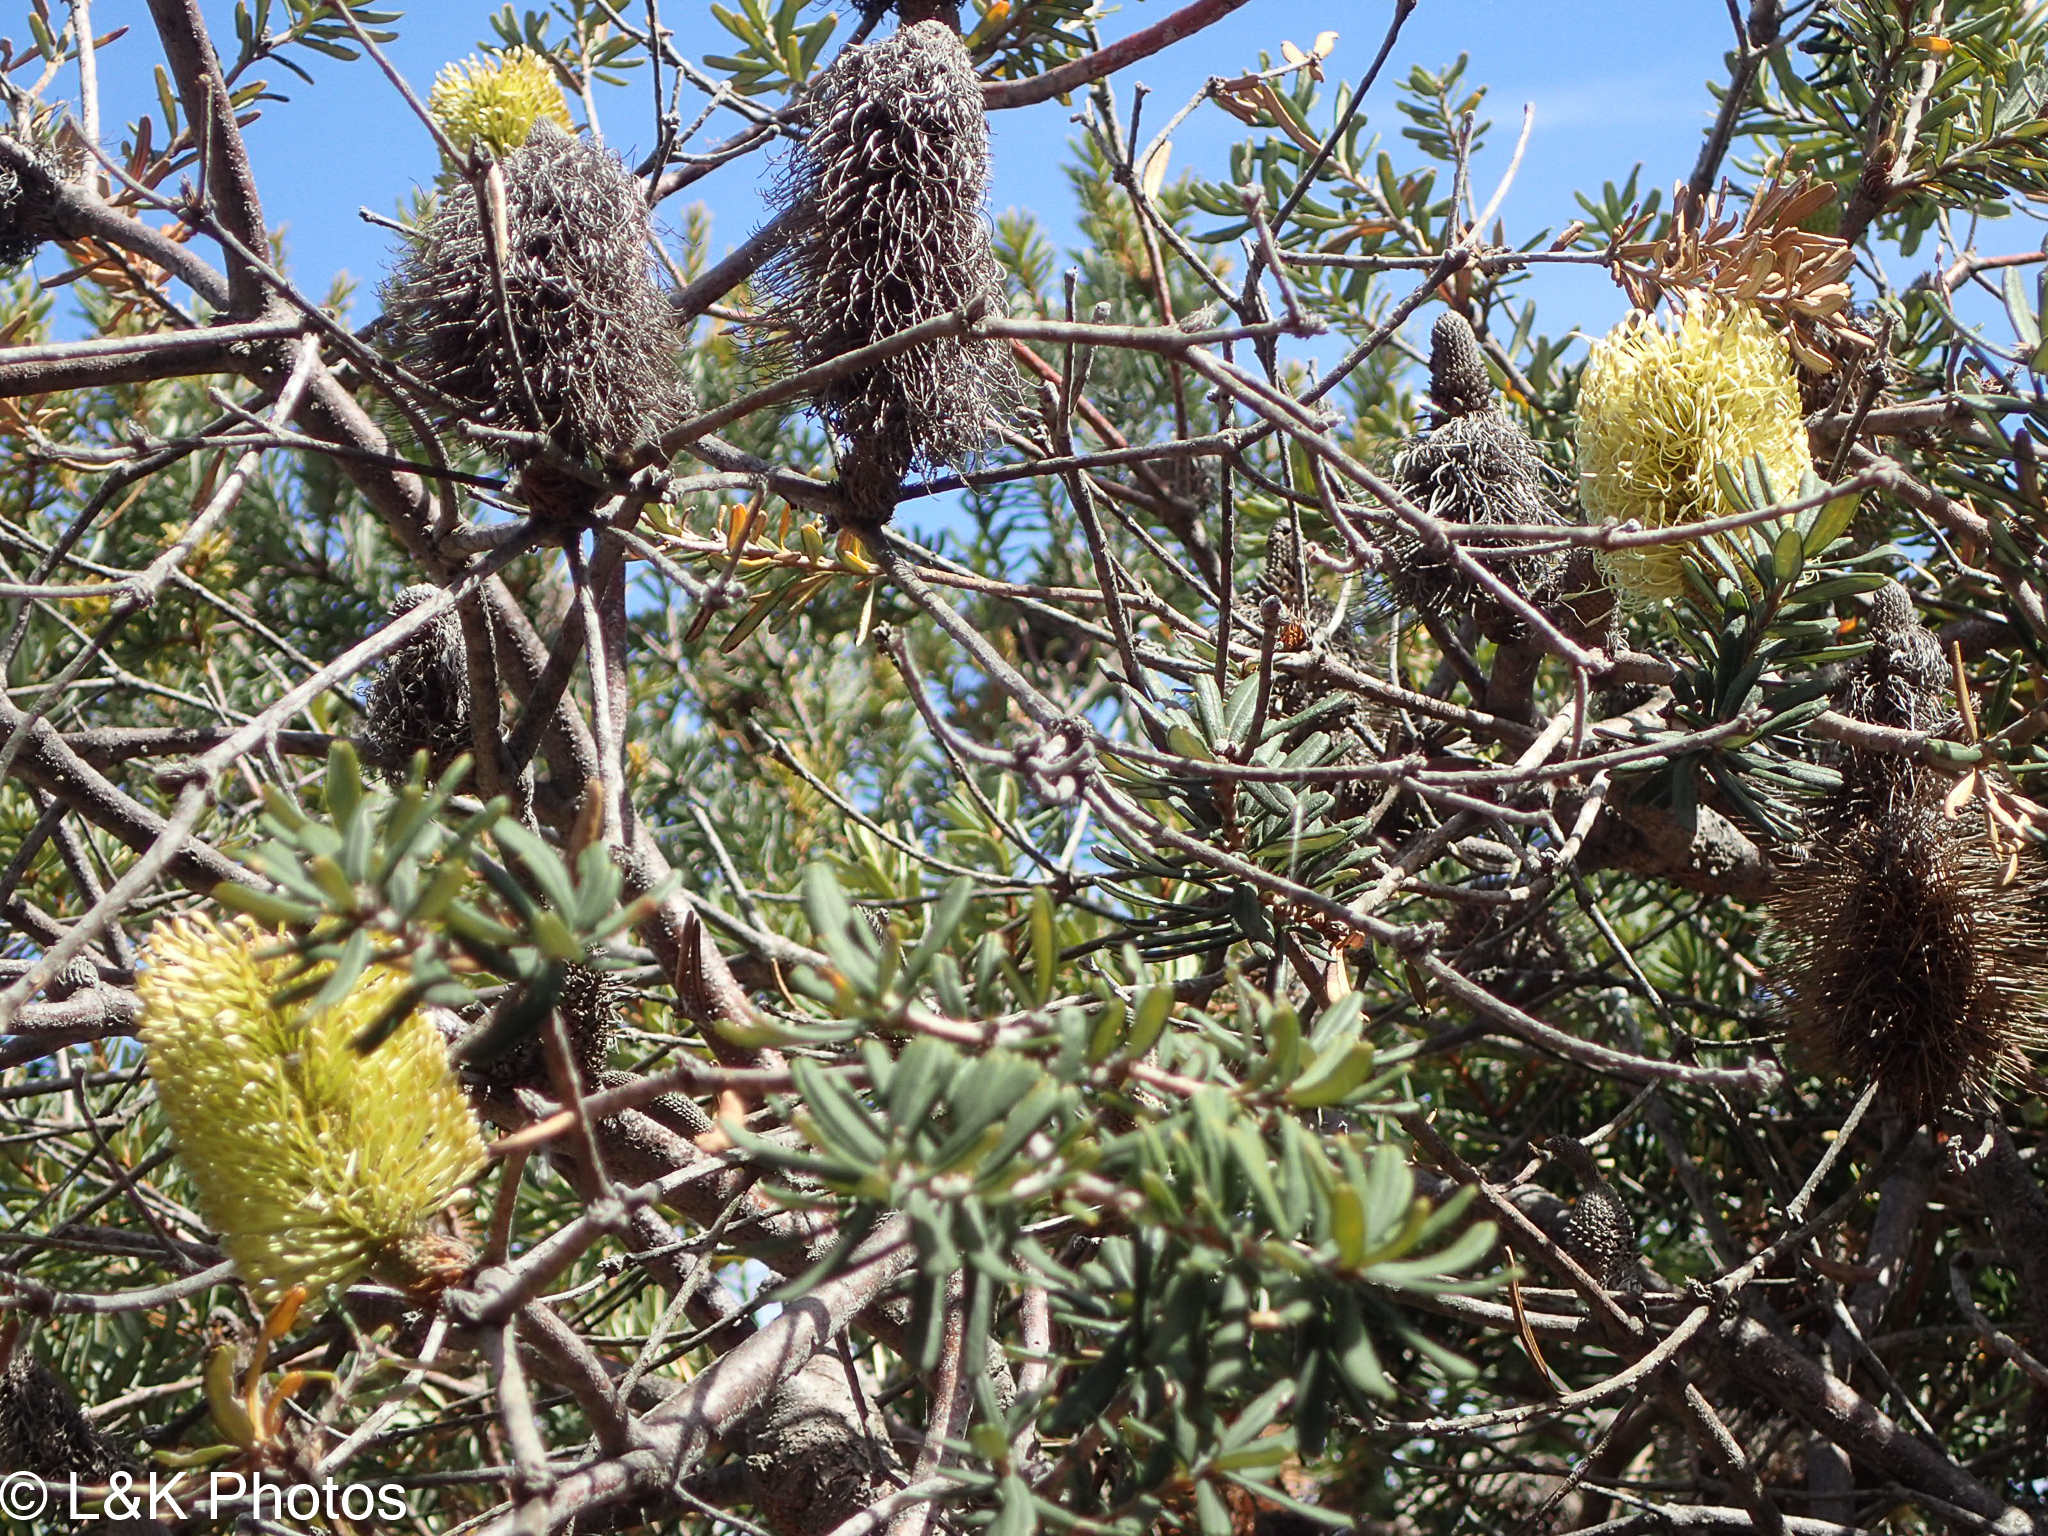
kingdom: Plantae
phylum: Tracheophyta
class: Magnoliopsida
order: Proteales
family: Proteaceae
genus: Banksia
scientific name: Banksia marginata
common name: Silver banksia
